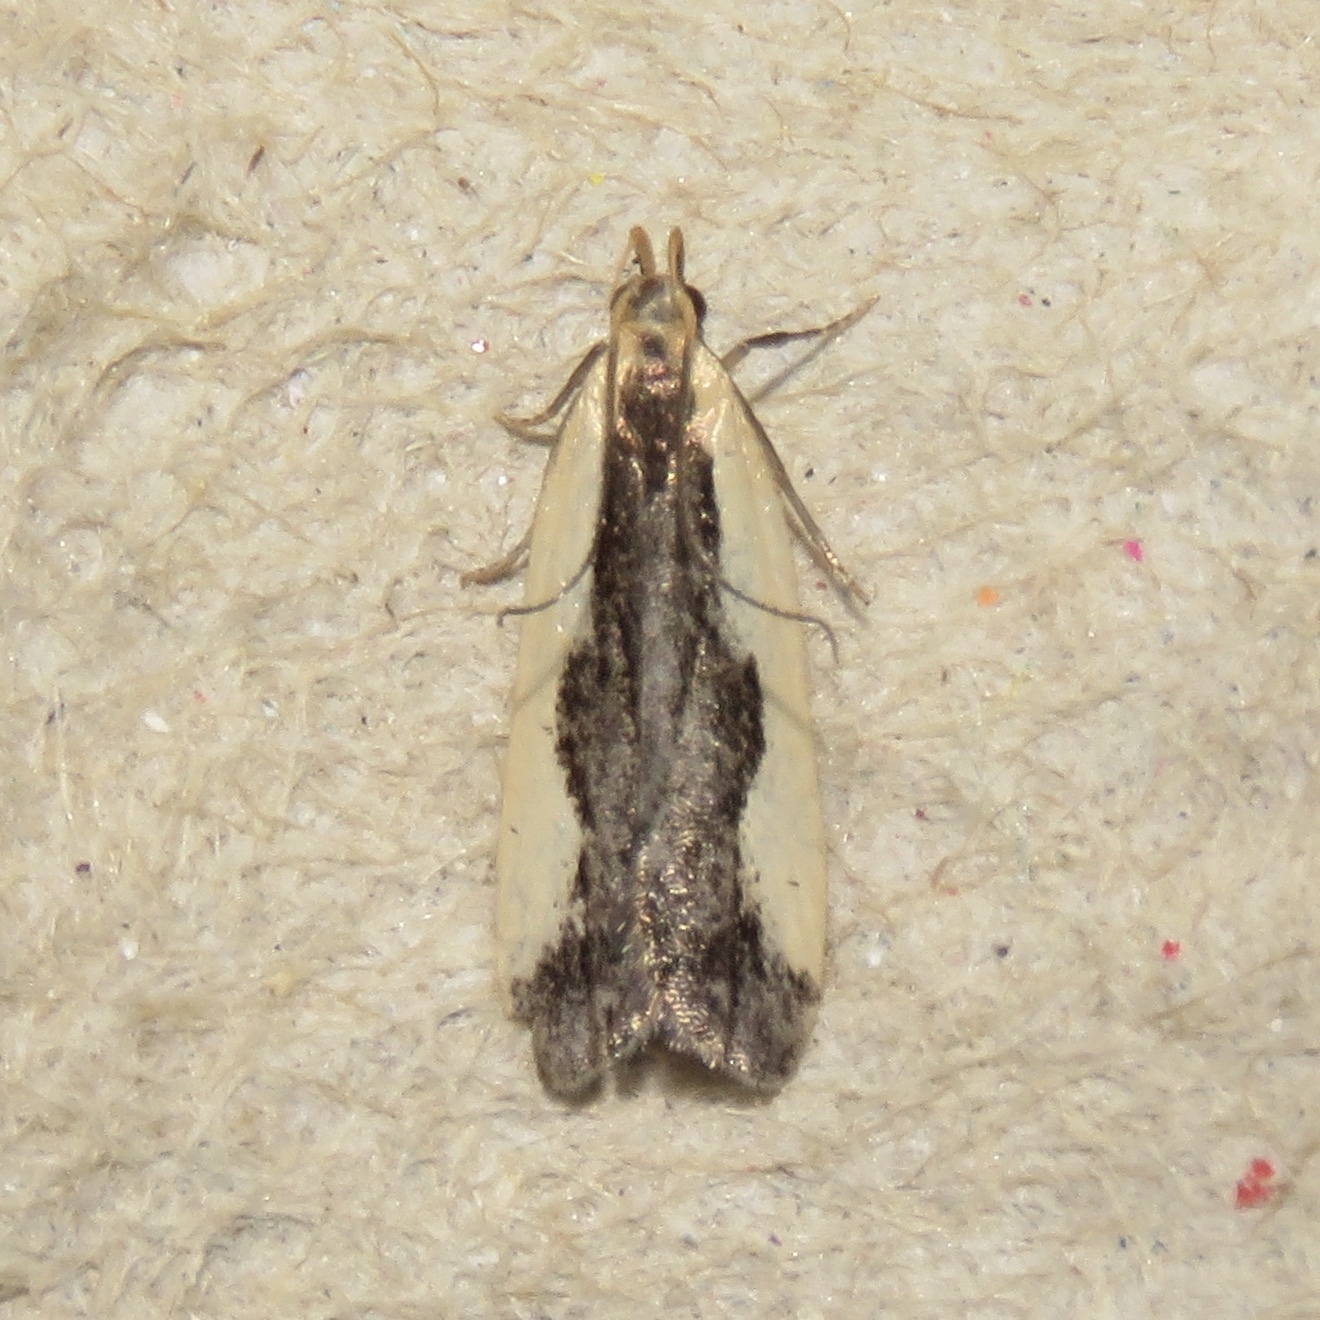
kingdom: Animalia
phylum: Arthropoda
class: Insecta
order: Lepidoptera
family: Gelechiidae
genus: Dichomeris
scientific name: Dichomeris inserrata
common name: Indented dichomeris moth
